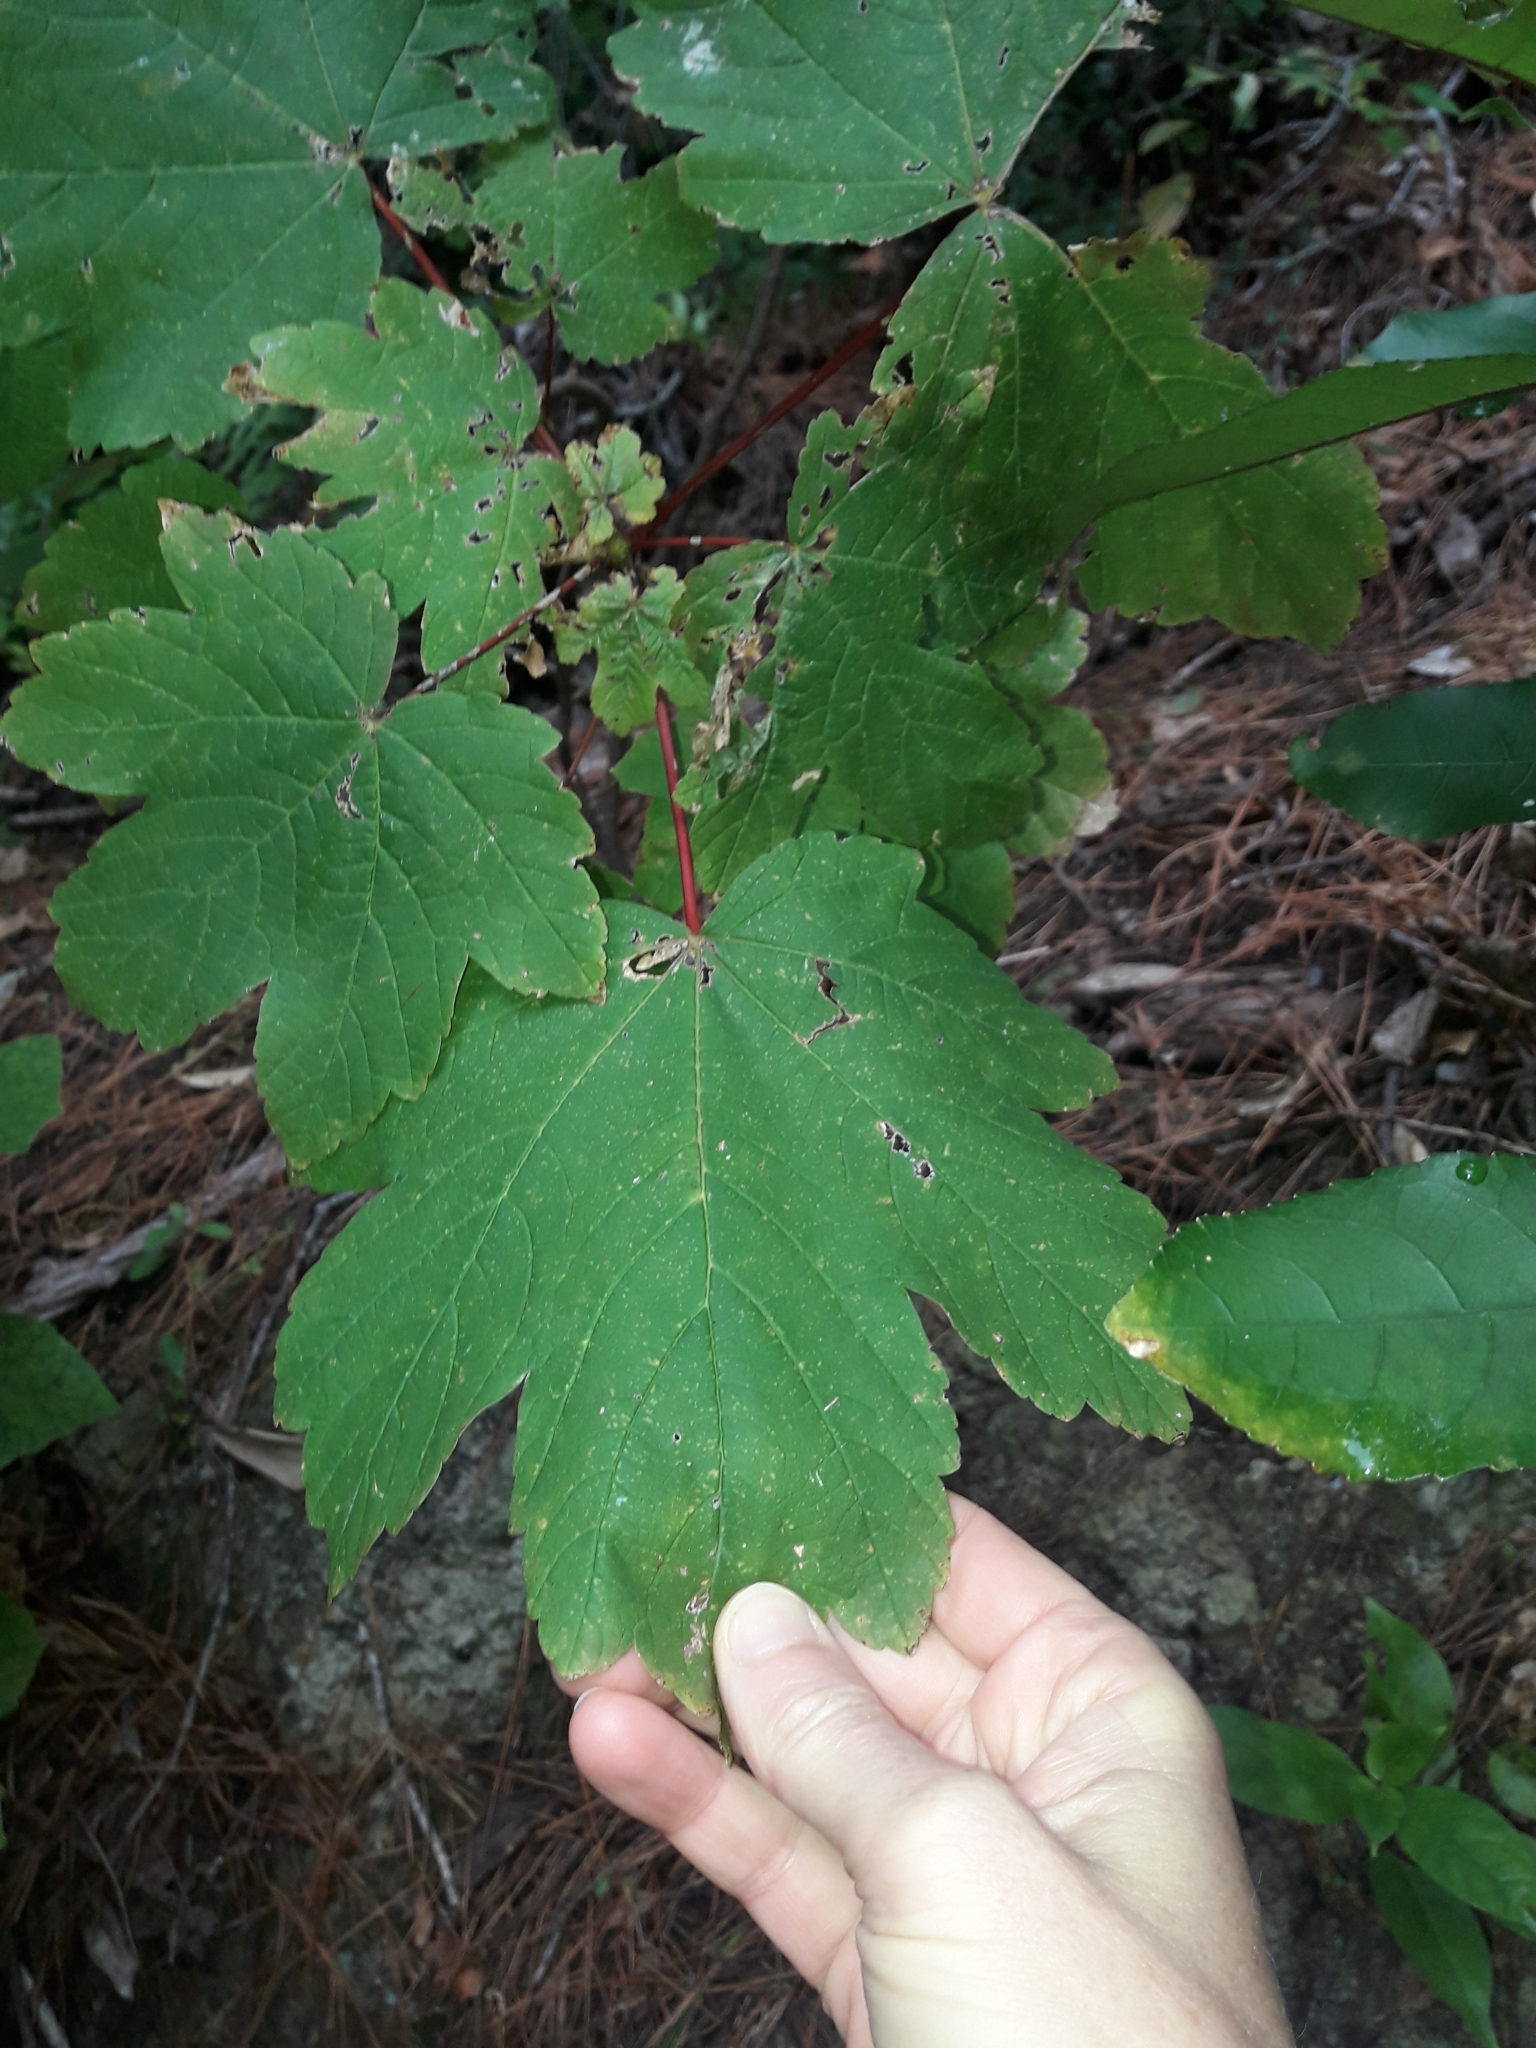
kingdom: Plantae
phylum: Tracheophyta
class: Magnoliopsida
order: Sapindales
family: Sapindaceae
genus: Acer
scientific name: Acer pseudoplatanus
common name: Sycamore
